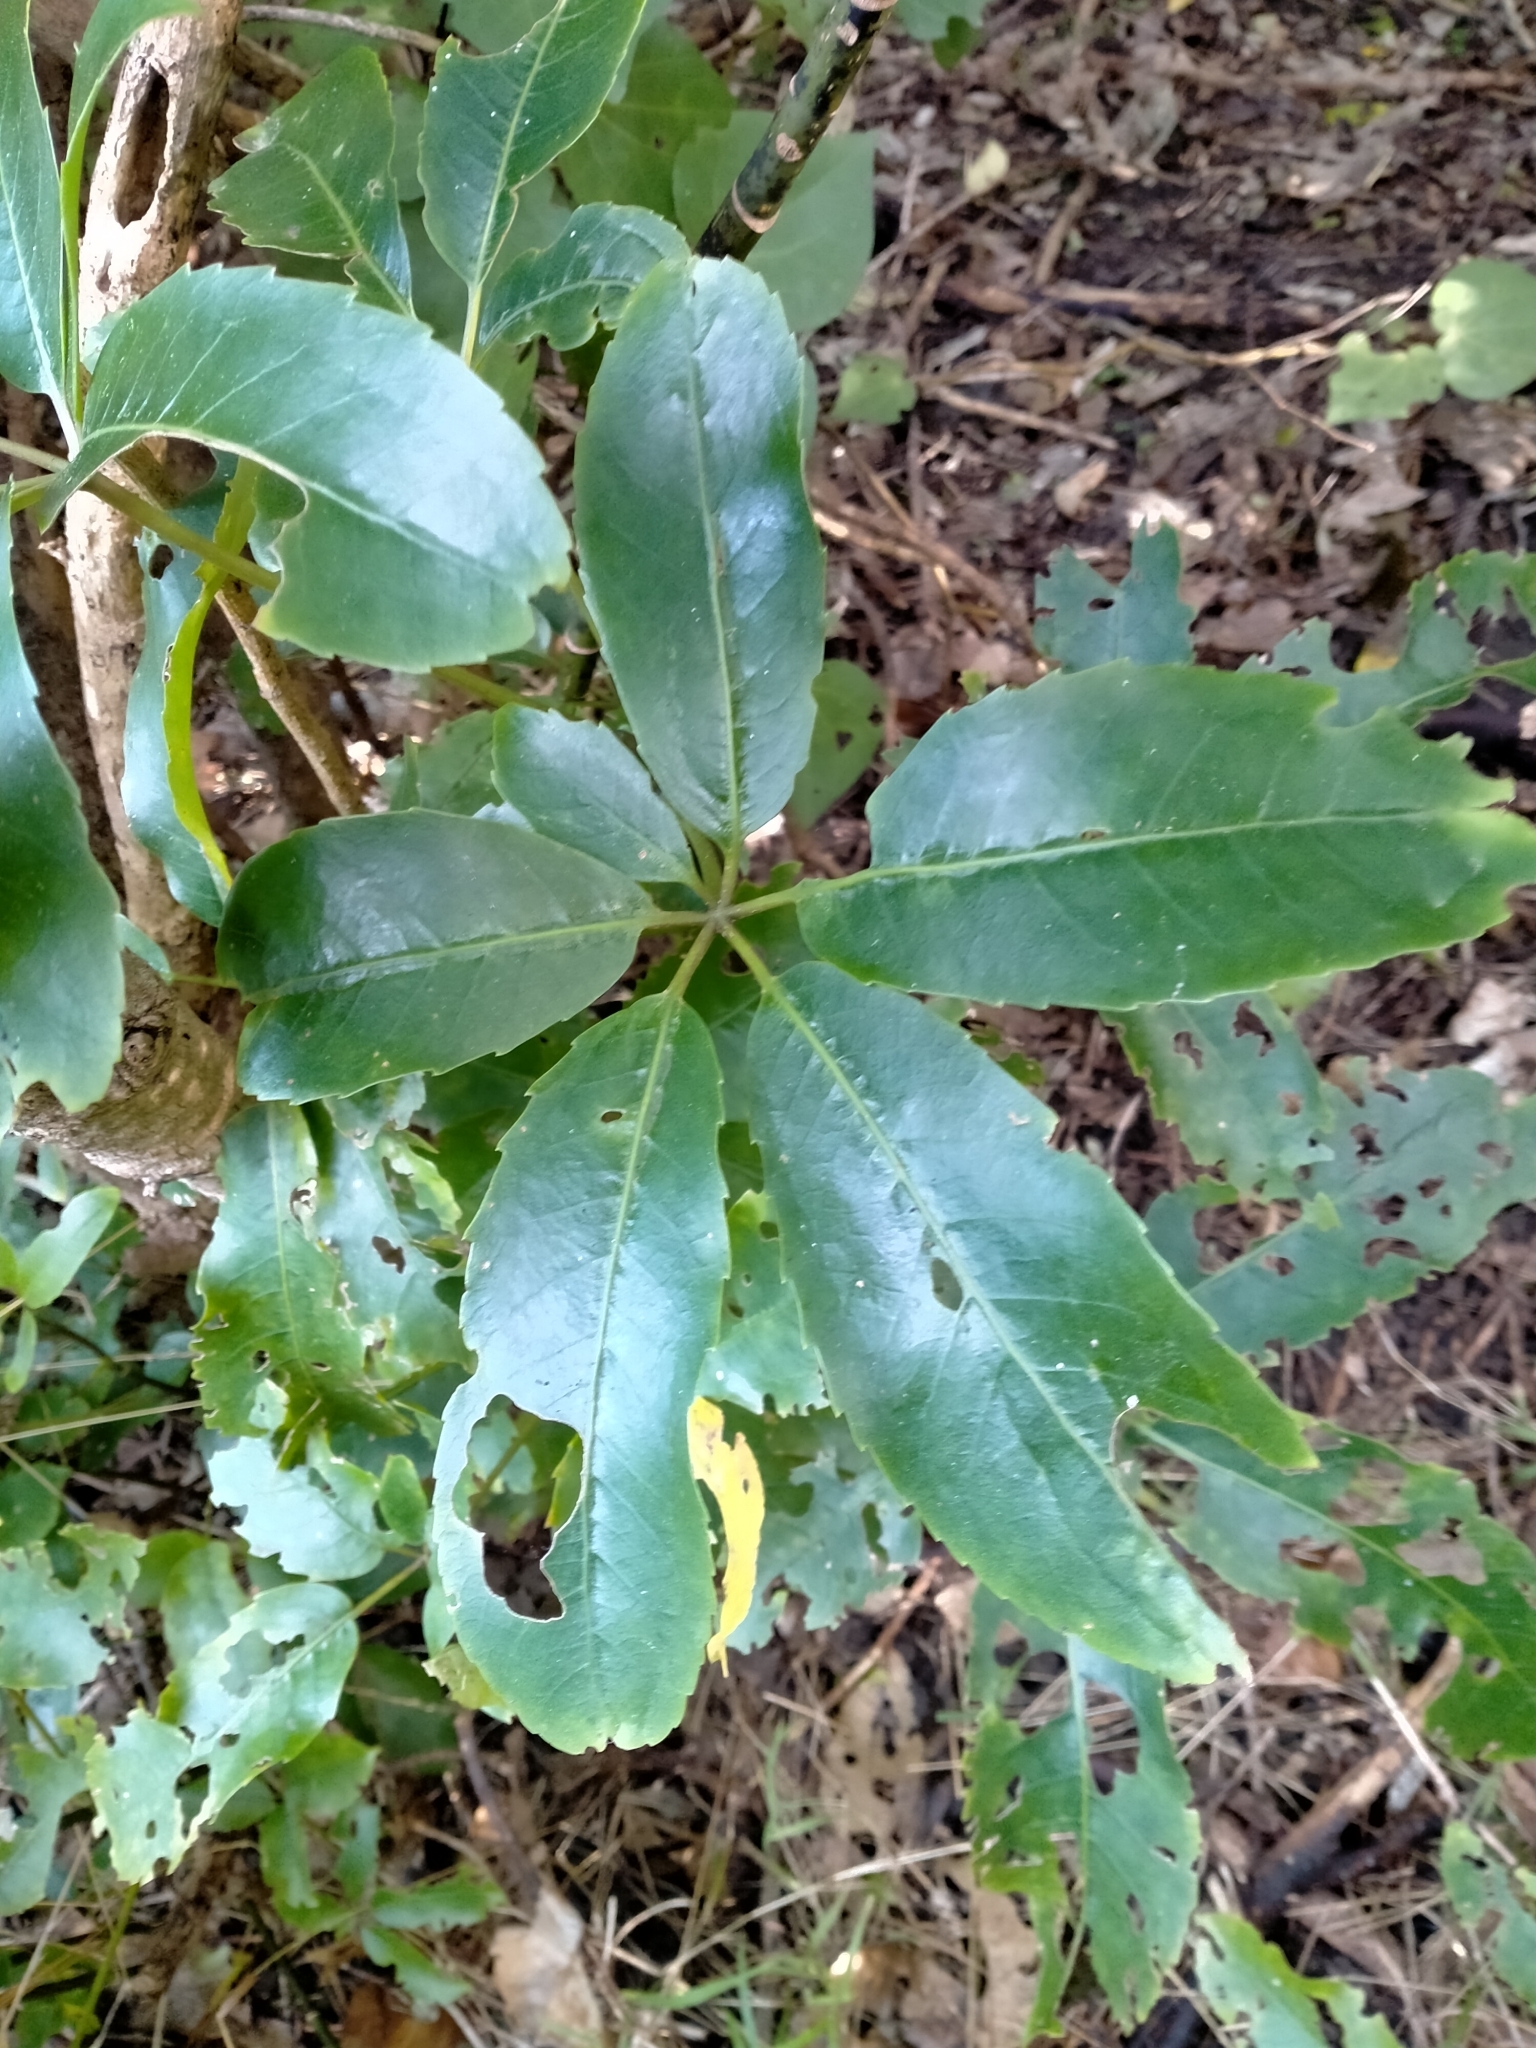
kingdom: Plantae
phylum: Tracheophyta
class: Magnoliopsida
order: Apiales
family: Araliaceae
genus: Neopanax
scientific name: Neopanax arboreus
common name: Five-fingers
